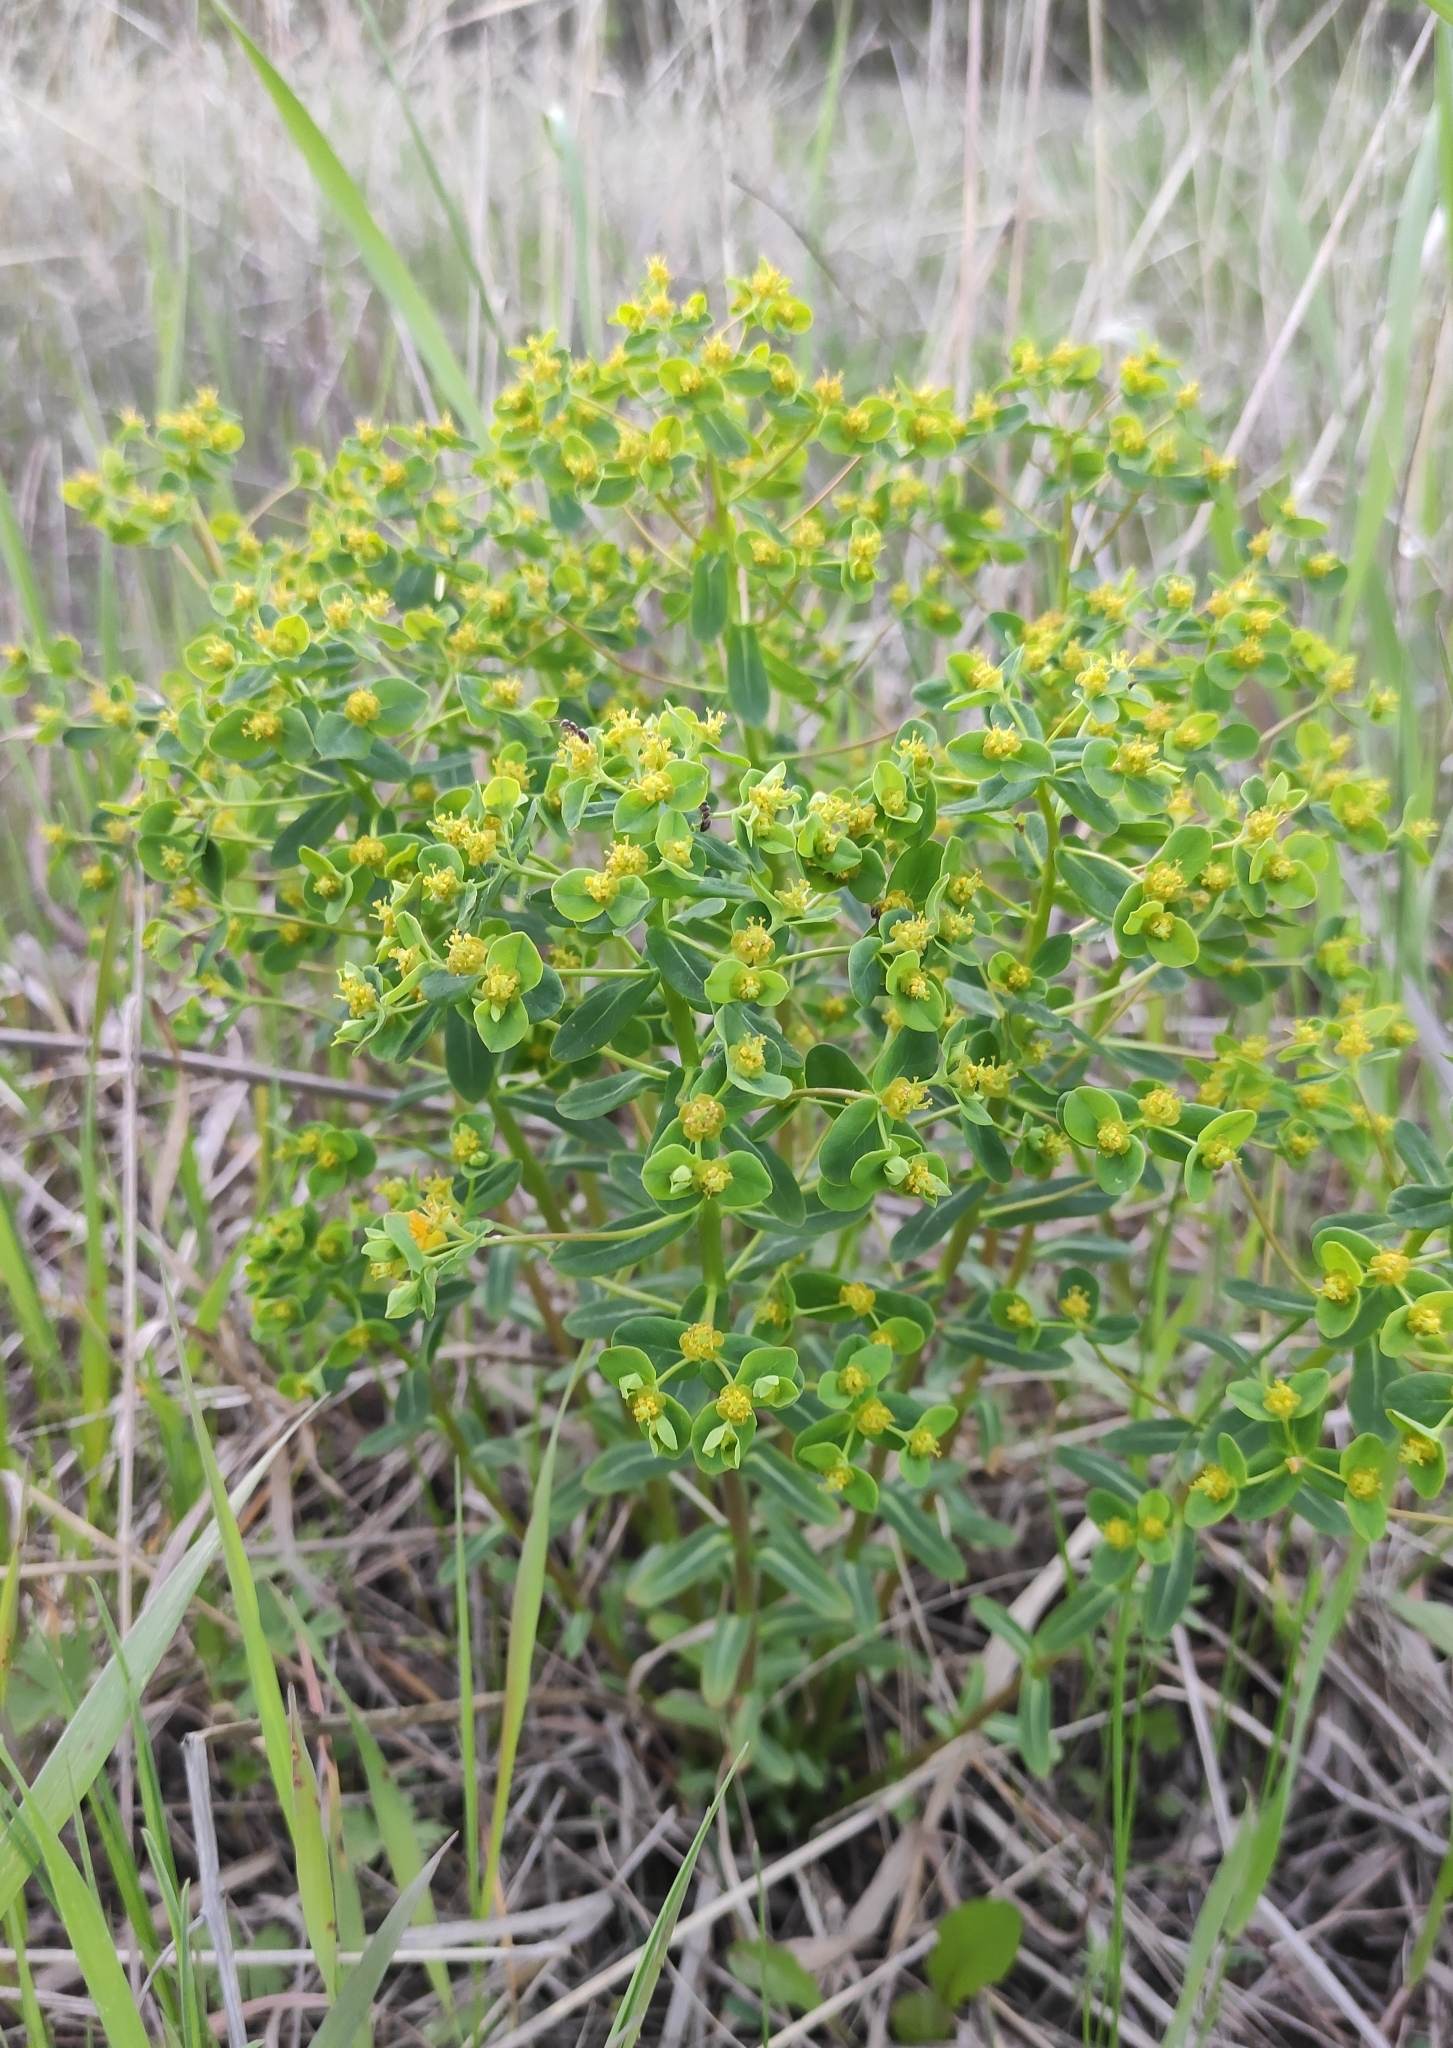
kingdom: Plantae
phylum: Tracheophyta
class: Magnoliopsida
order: Malpighiales
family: Euphorbiaceae
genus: Euphorbia
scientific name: Euphorbia jenisseiensis
